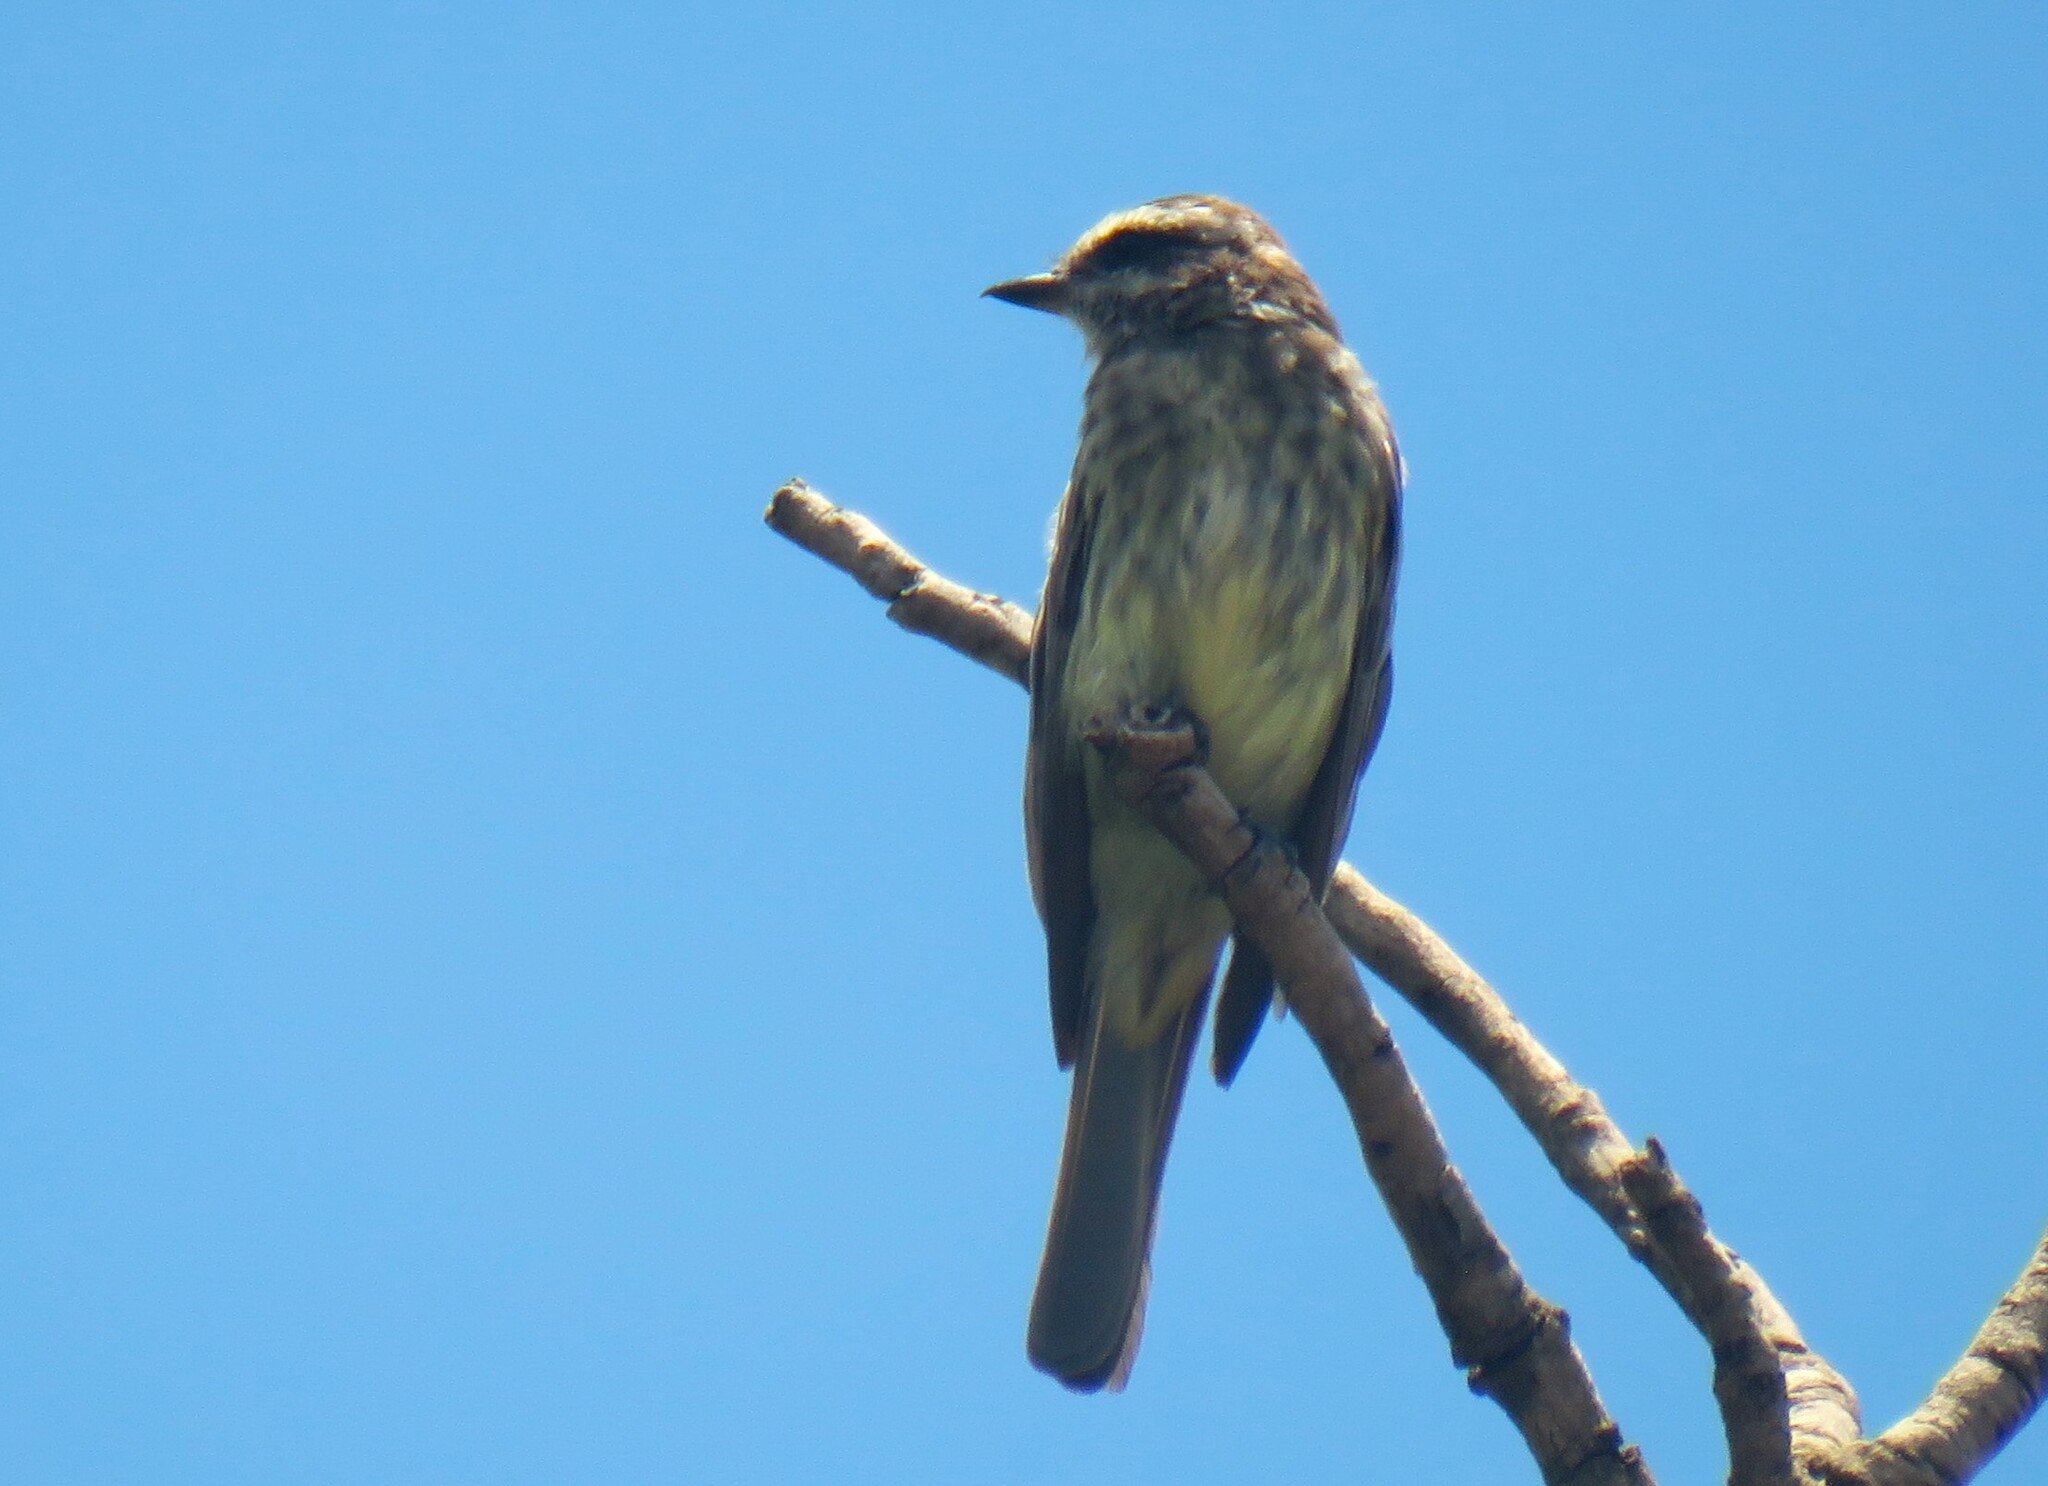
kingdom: Animalia
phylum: Chordata
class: Aves
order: Passeriformes
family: Tyrannidae
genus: Empidonomus
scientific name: Empidonomus varius
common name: Variegated flycatcher
